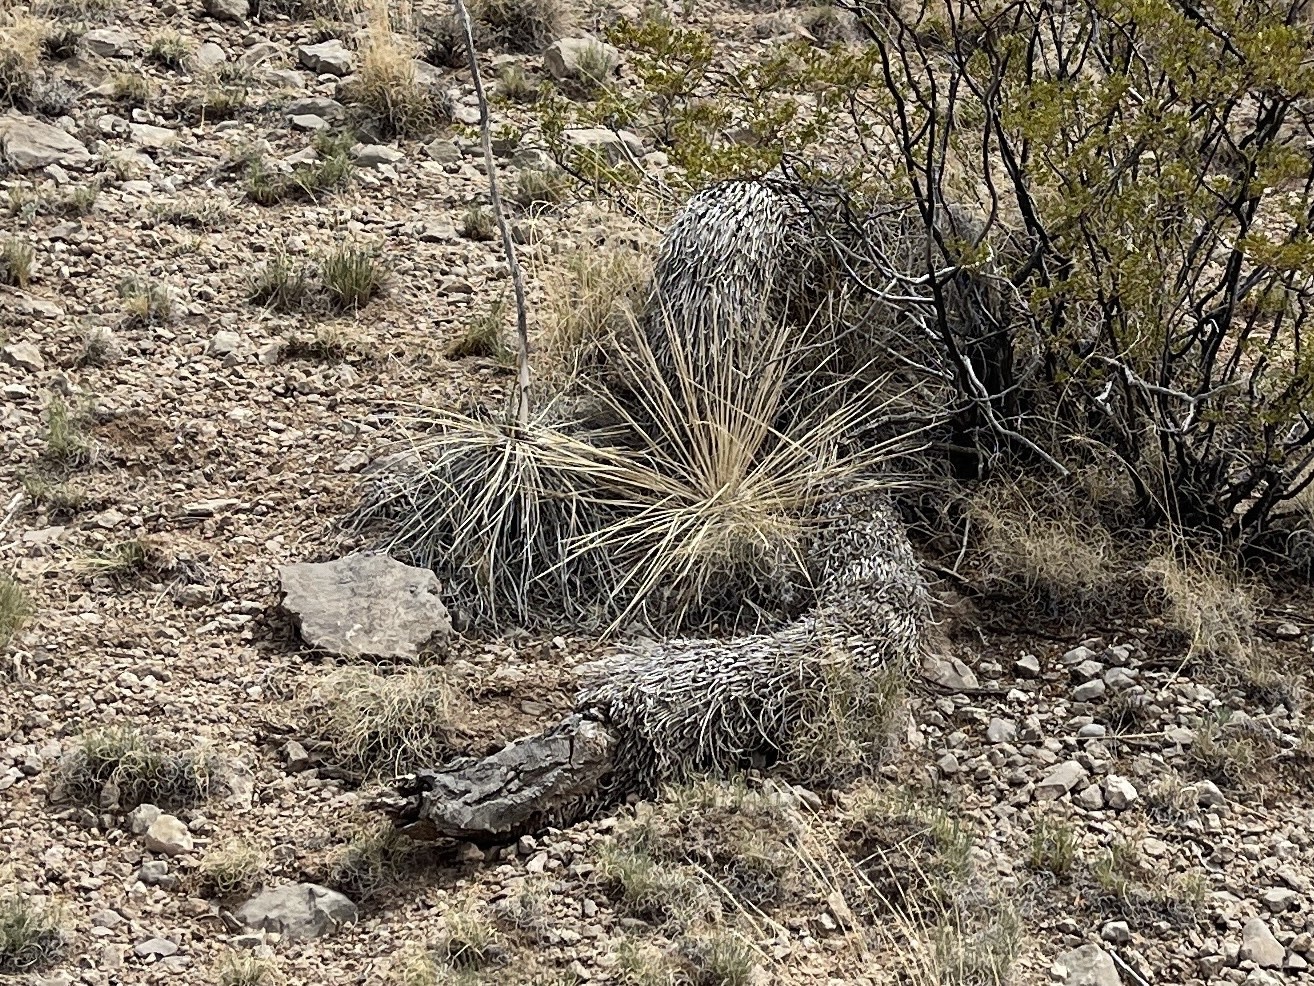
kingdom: Plantae
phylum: Tracheophyta
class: Liliopsida
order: Asparagales
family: Asparagaceae
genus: Yucca
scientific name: Yucca elata
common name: Palmella
